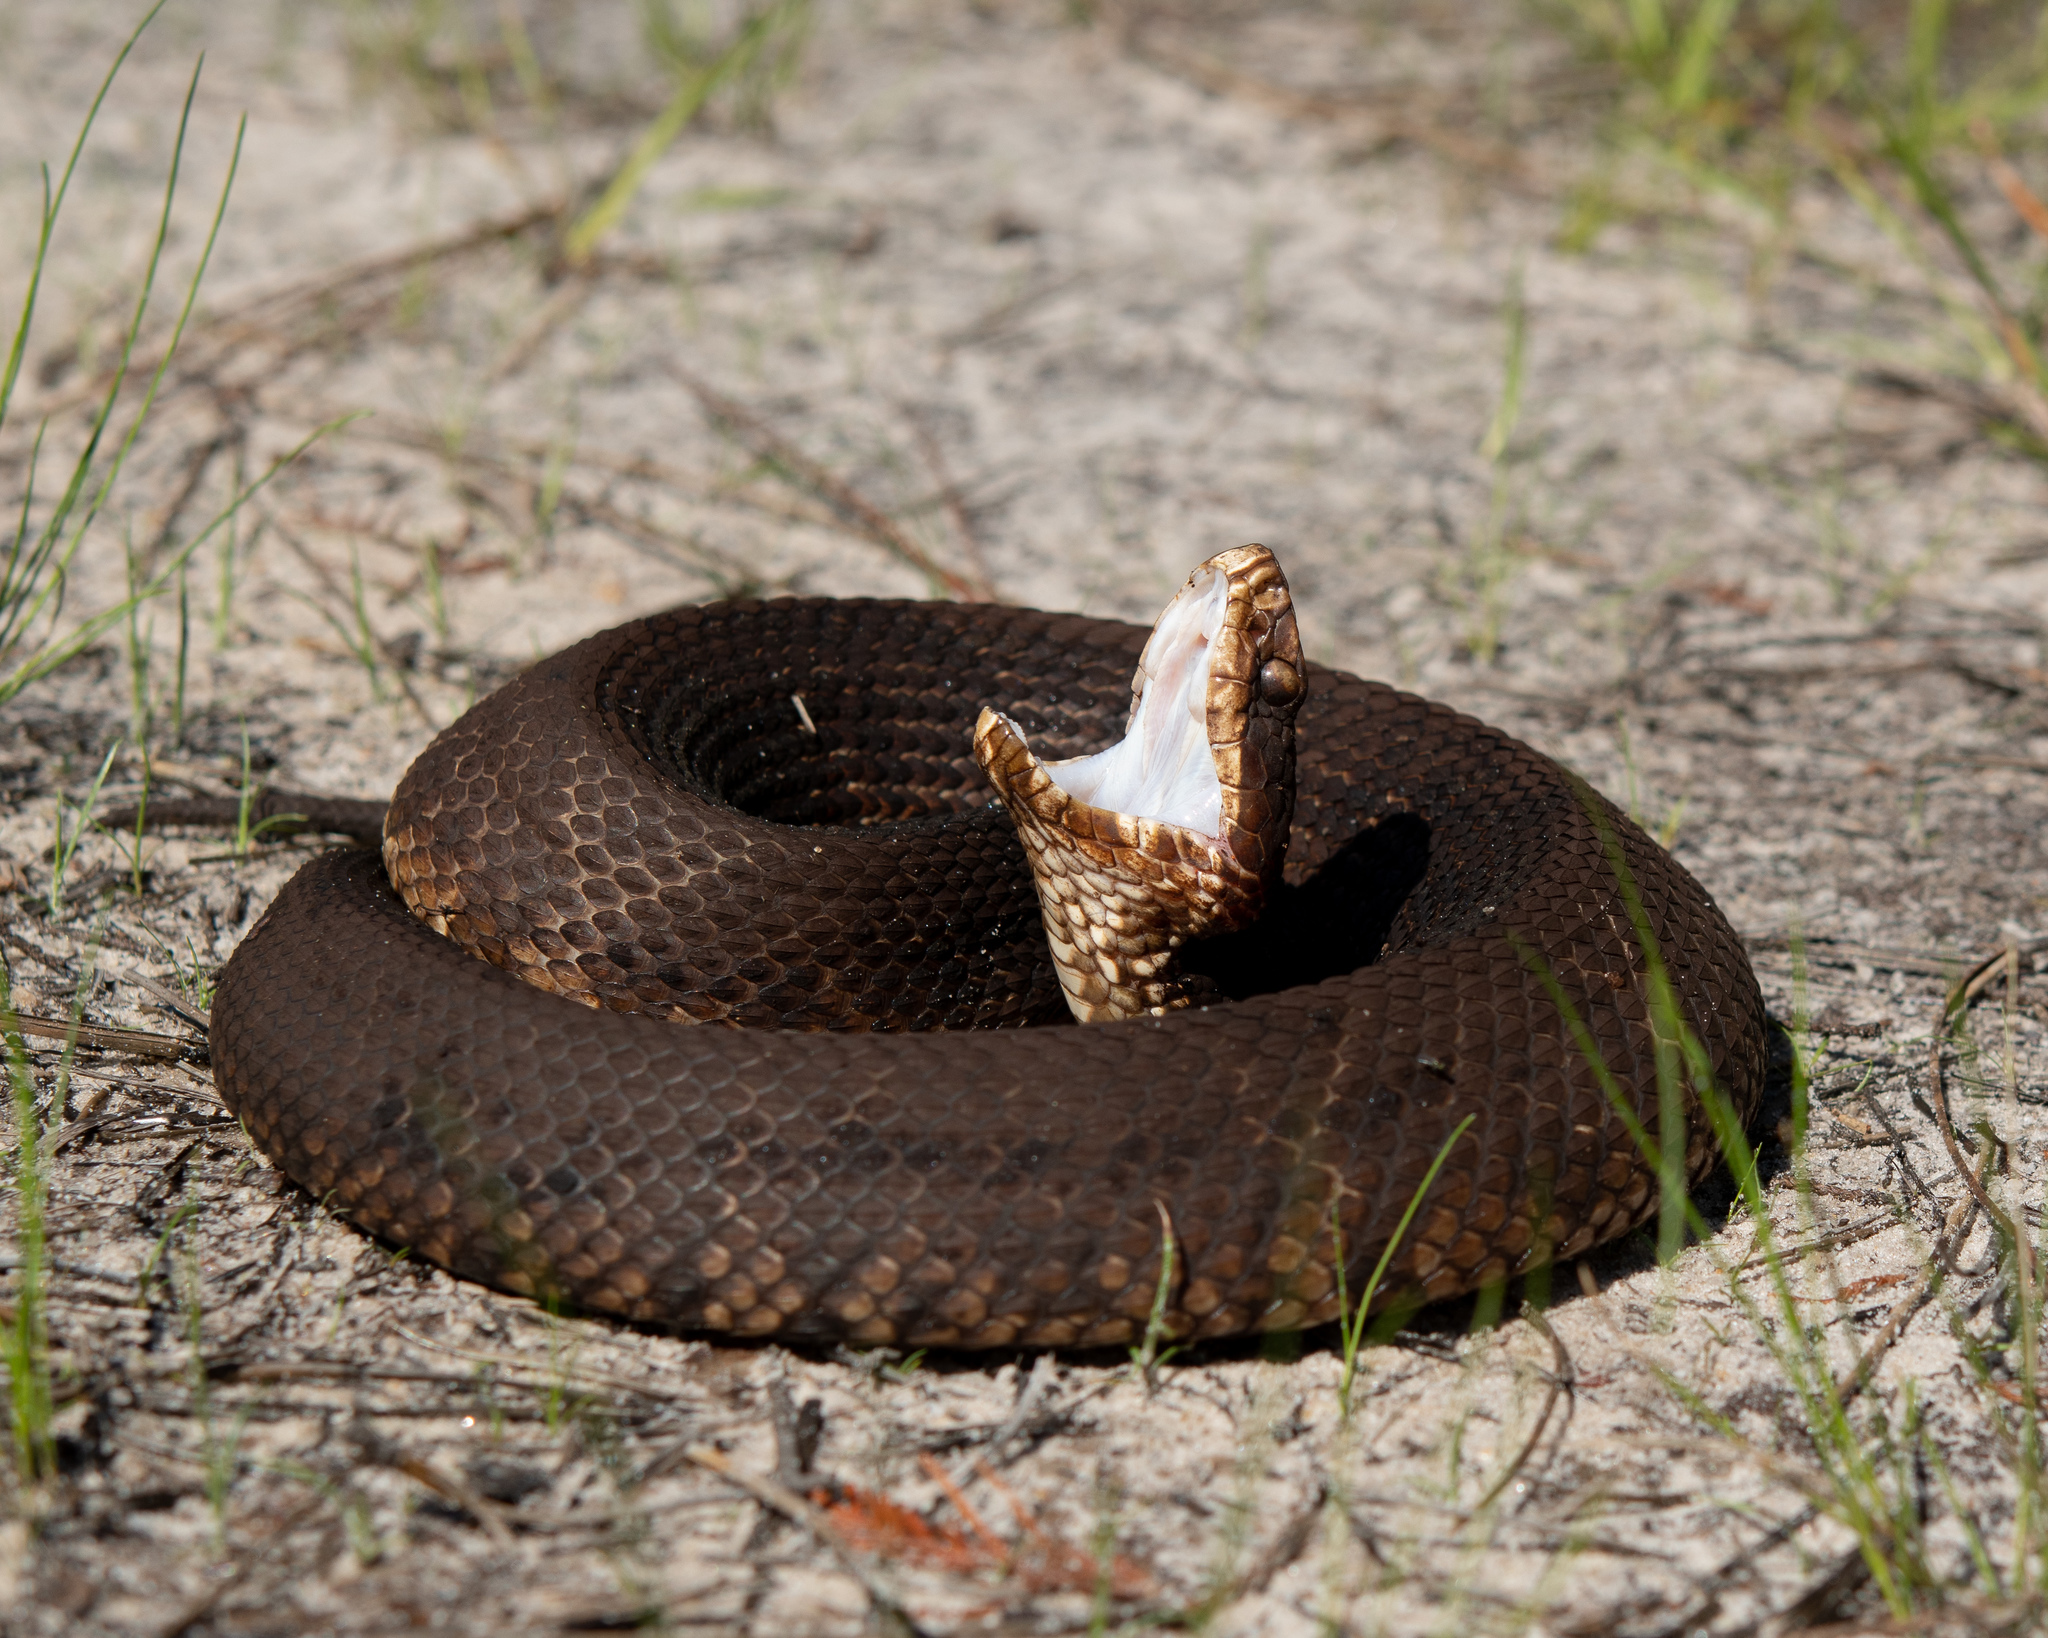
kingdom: Animalia
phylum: Chordata
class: Squamata
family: Viperidae
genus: Agkistrodon
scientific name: Agkistrodon conanti
